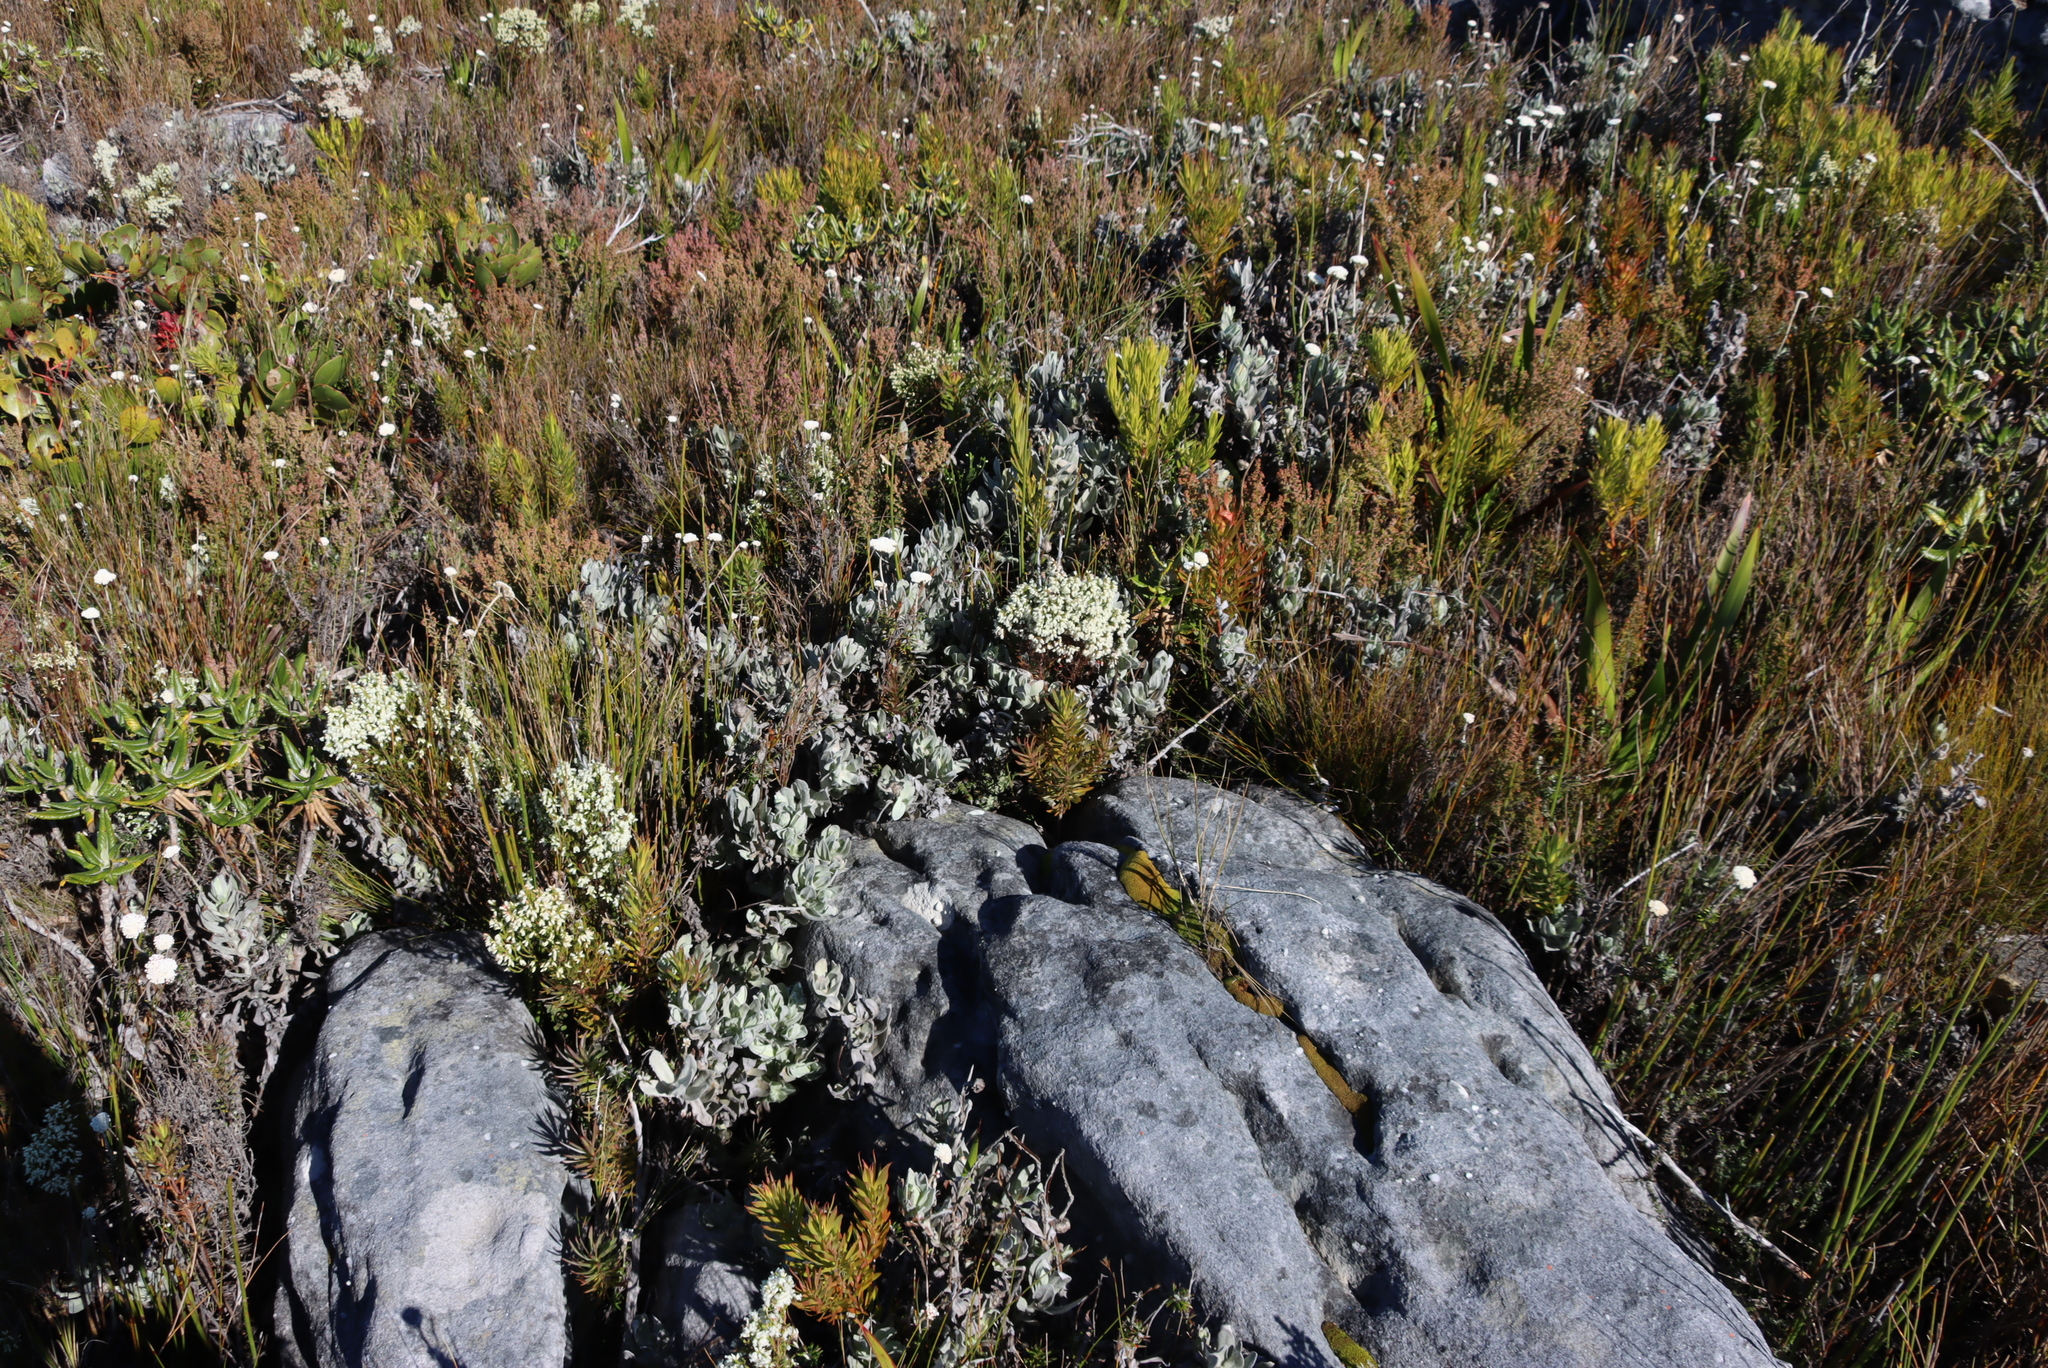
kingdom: Plantae
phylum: Tracheophyta
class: Magnoliopsida
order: Ericales
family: Ericaceae
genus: Erica
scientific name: Erica hispidula
